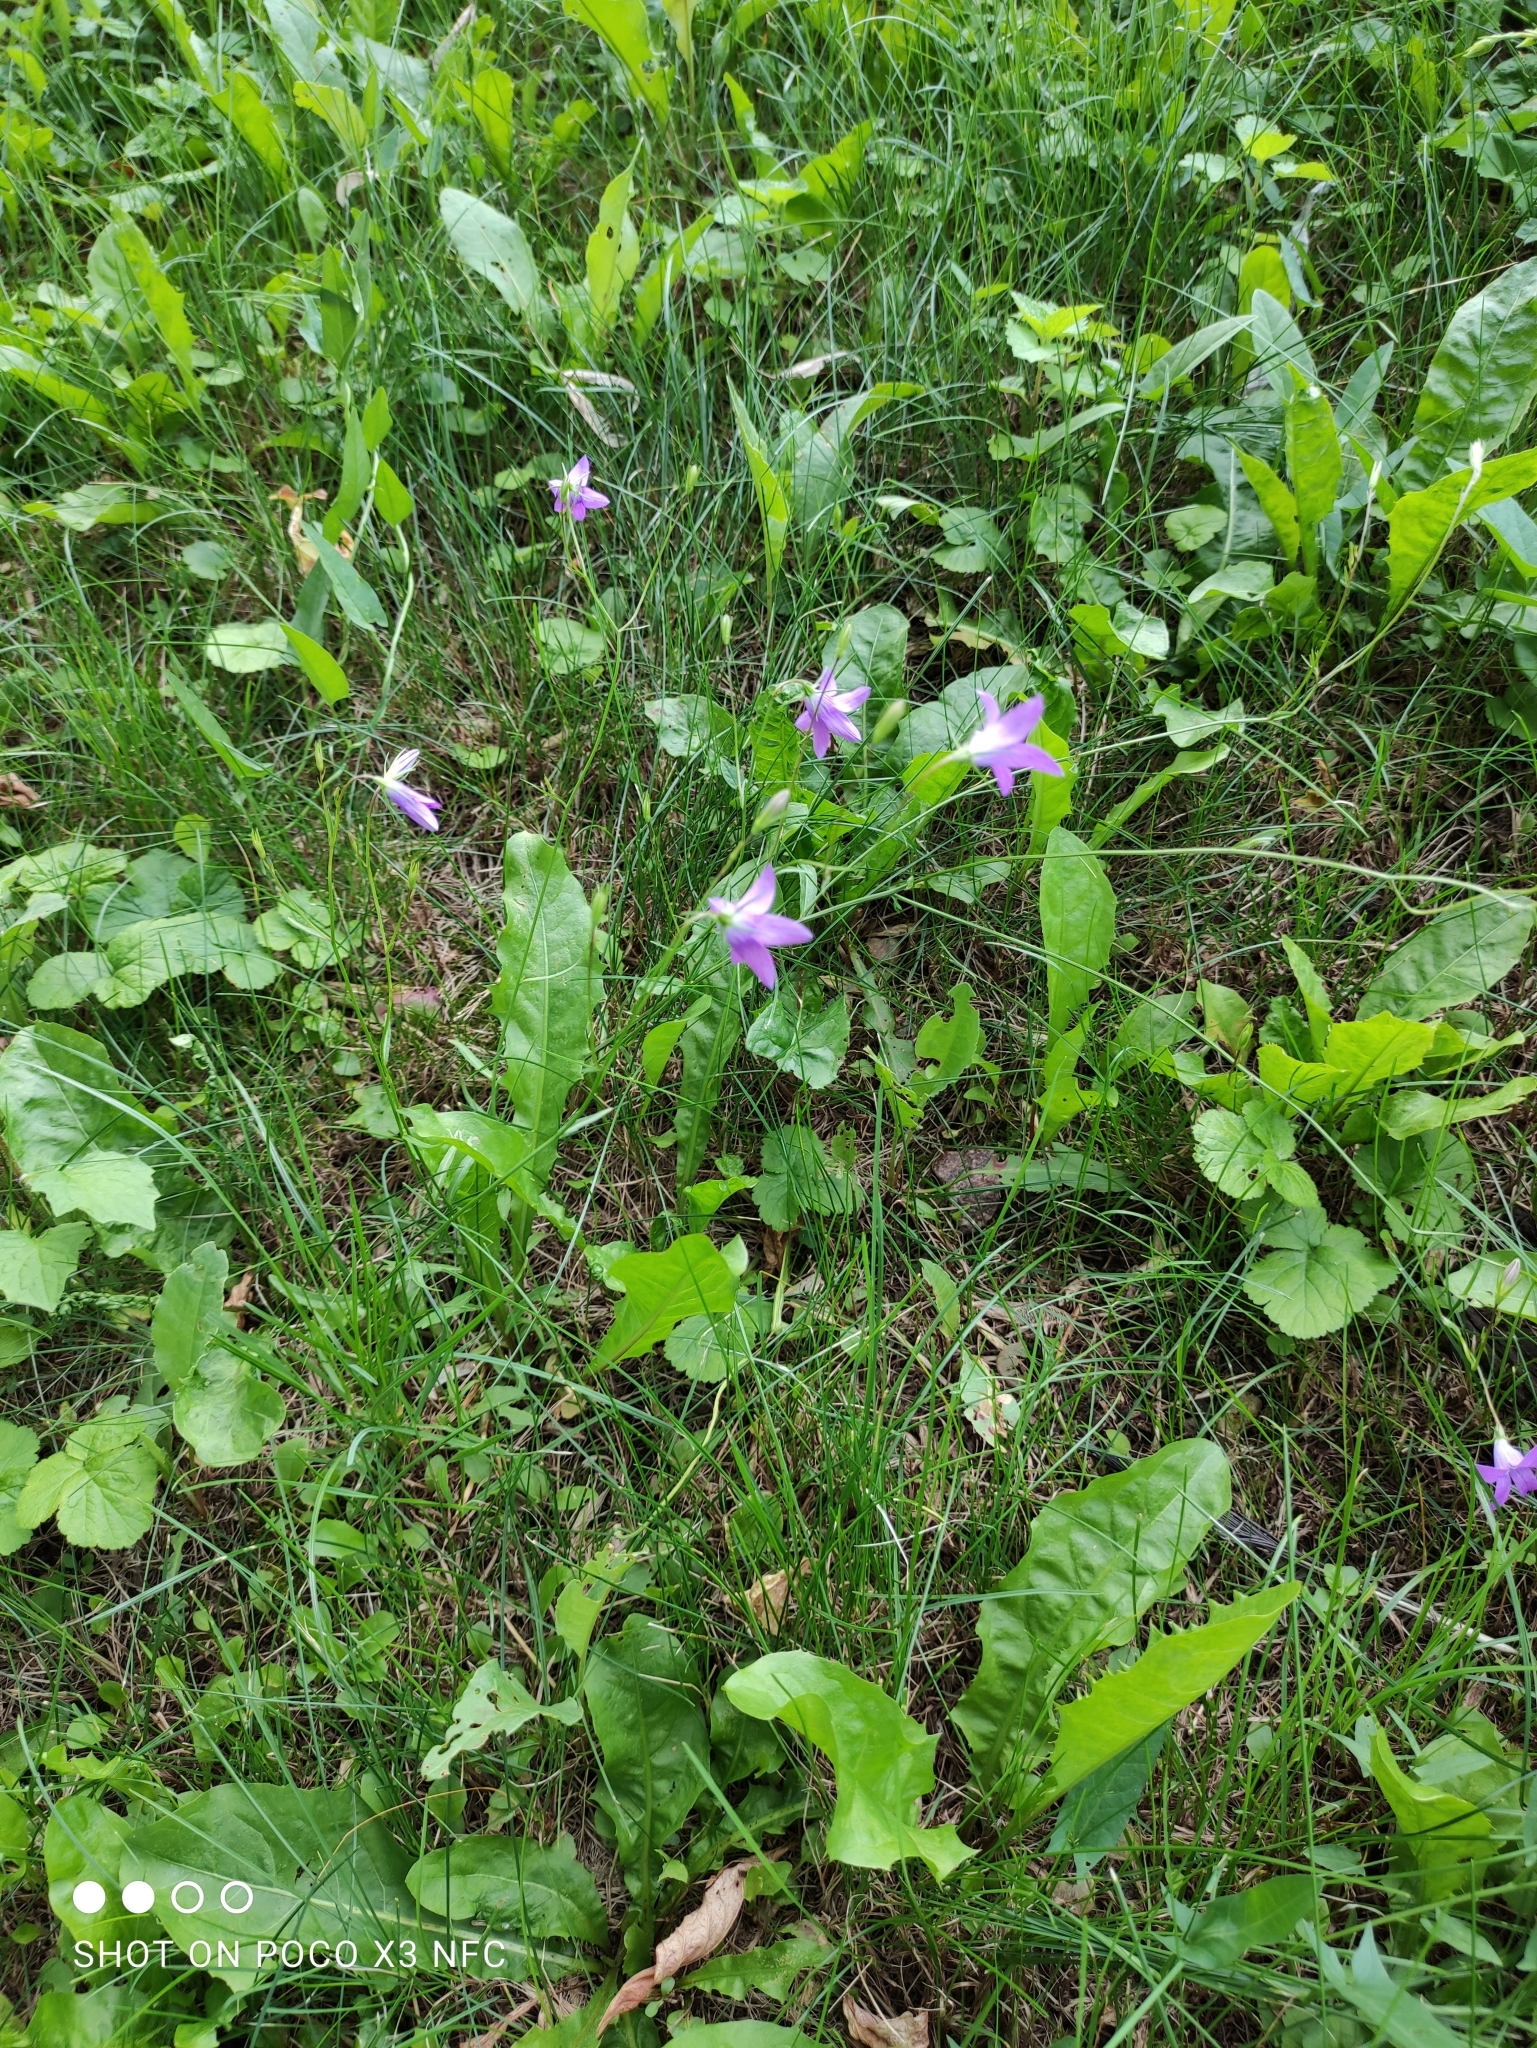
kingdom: Plantae
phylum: Tracheophyta
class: Magnoliopsida
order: Asterales
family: Campanulaceae
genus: Campanula
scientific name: Campanula patula
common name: Spreading bellflower
